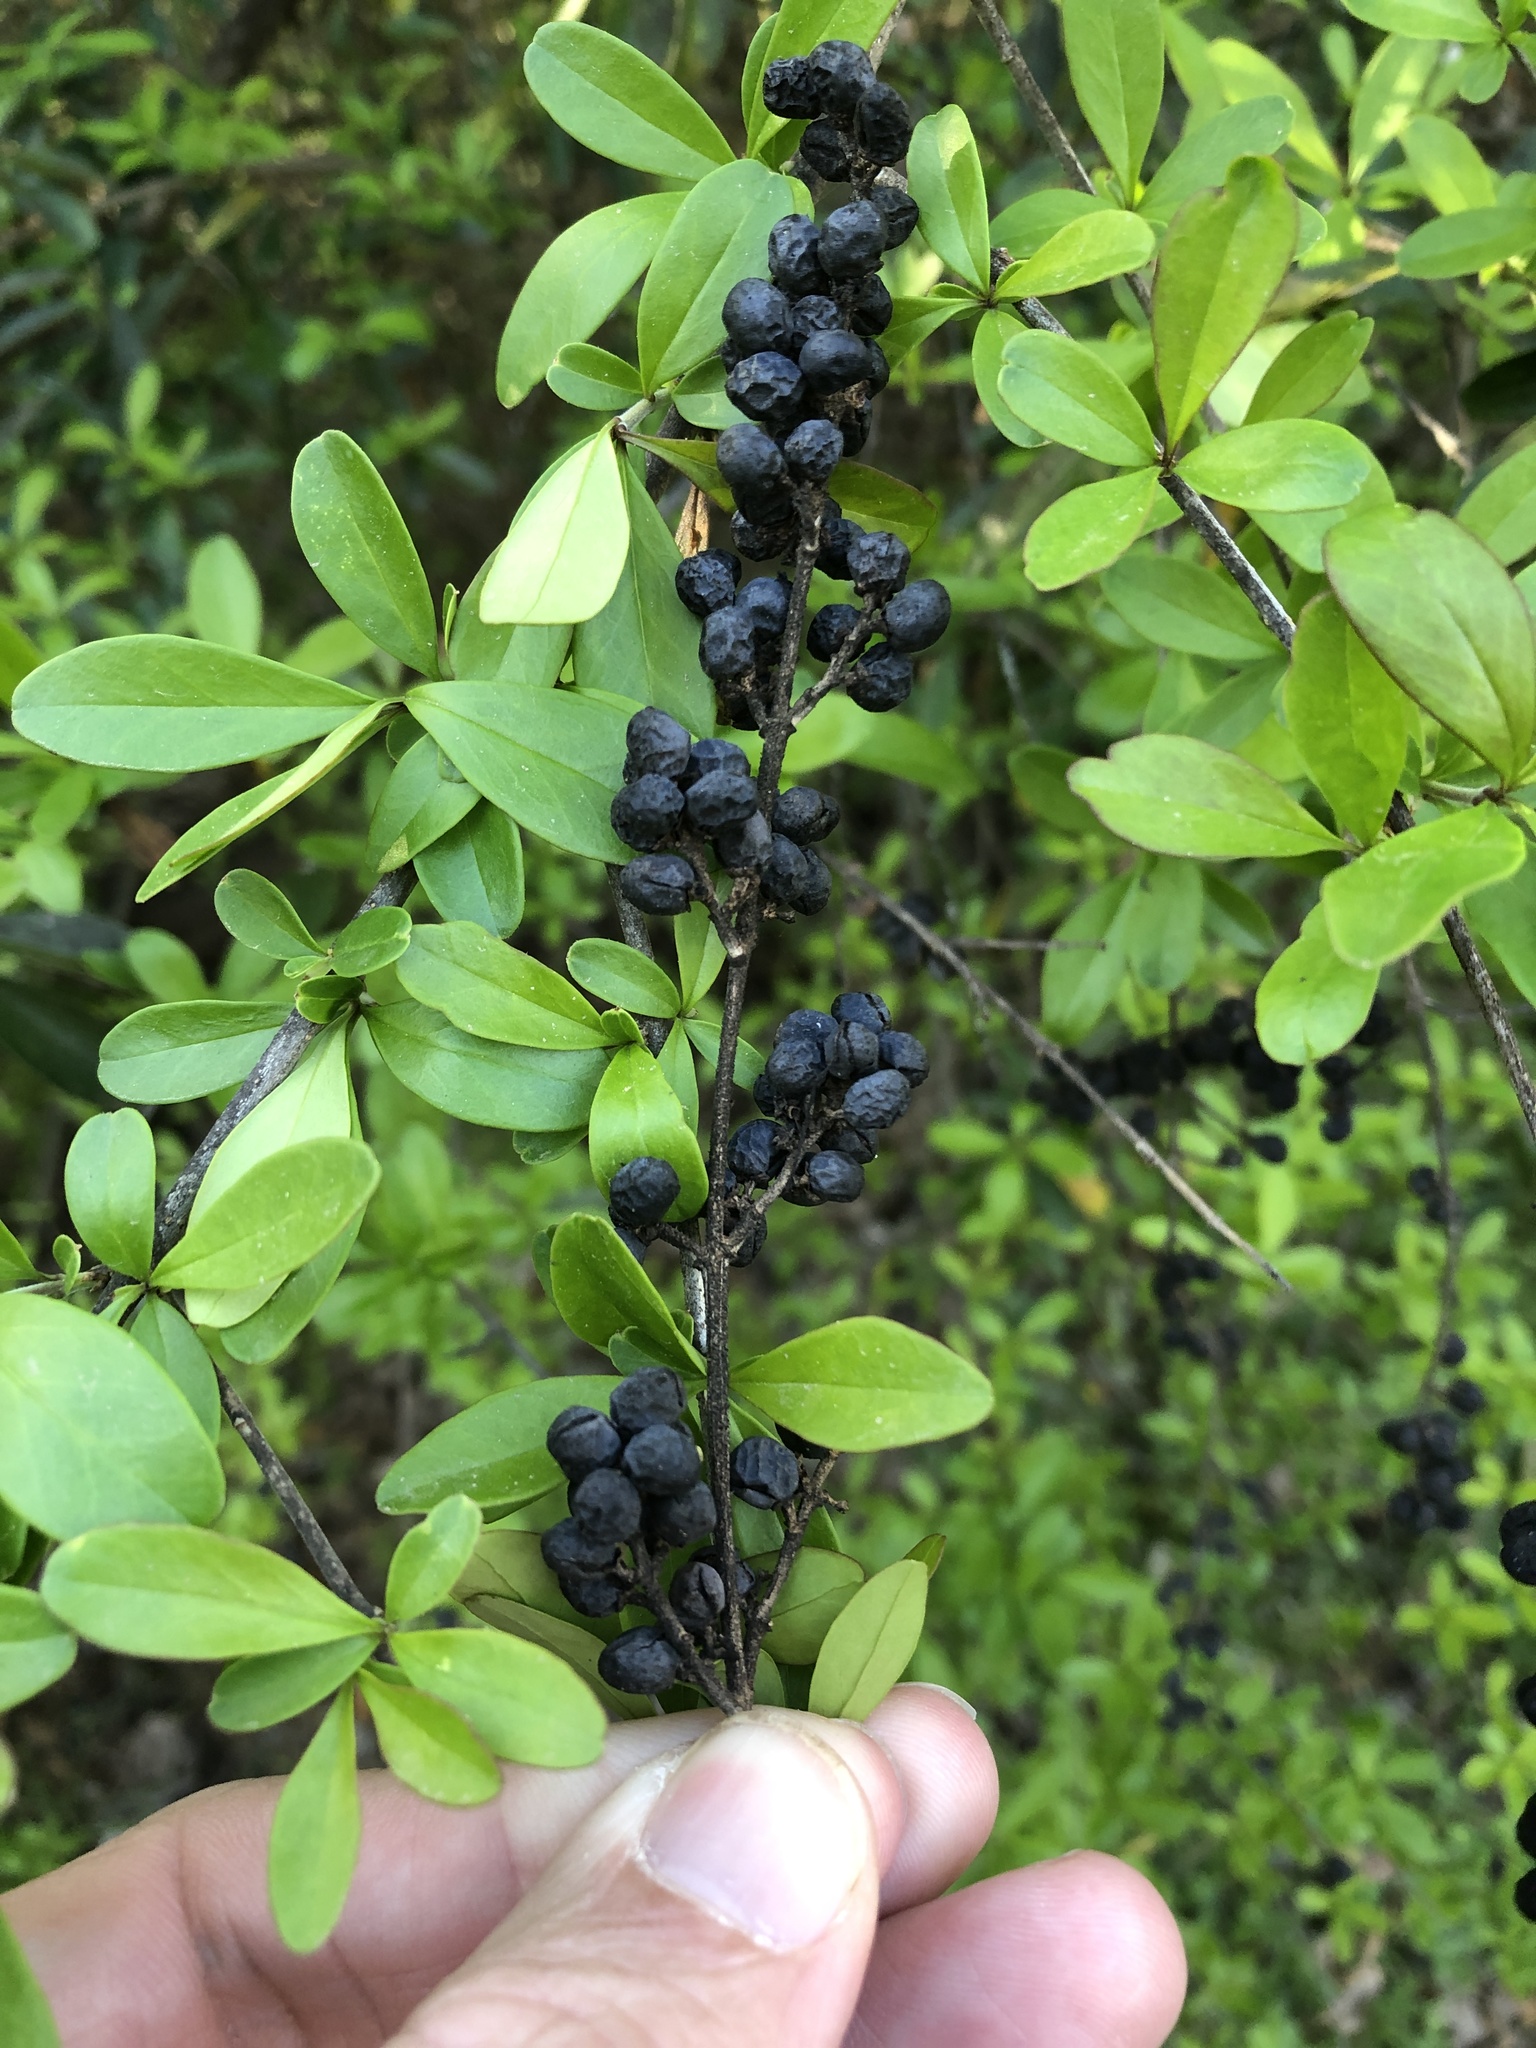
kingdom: Plantae
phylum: Tracheophyta
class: Magnoliopsida
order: Lamiales
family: Oleaceae
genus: Ligustrum
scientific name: Ligustrum quihoui
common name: Waxyleaf privet
